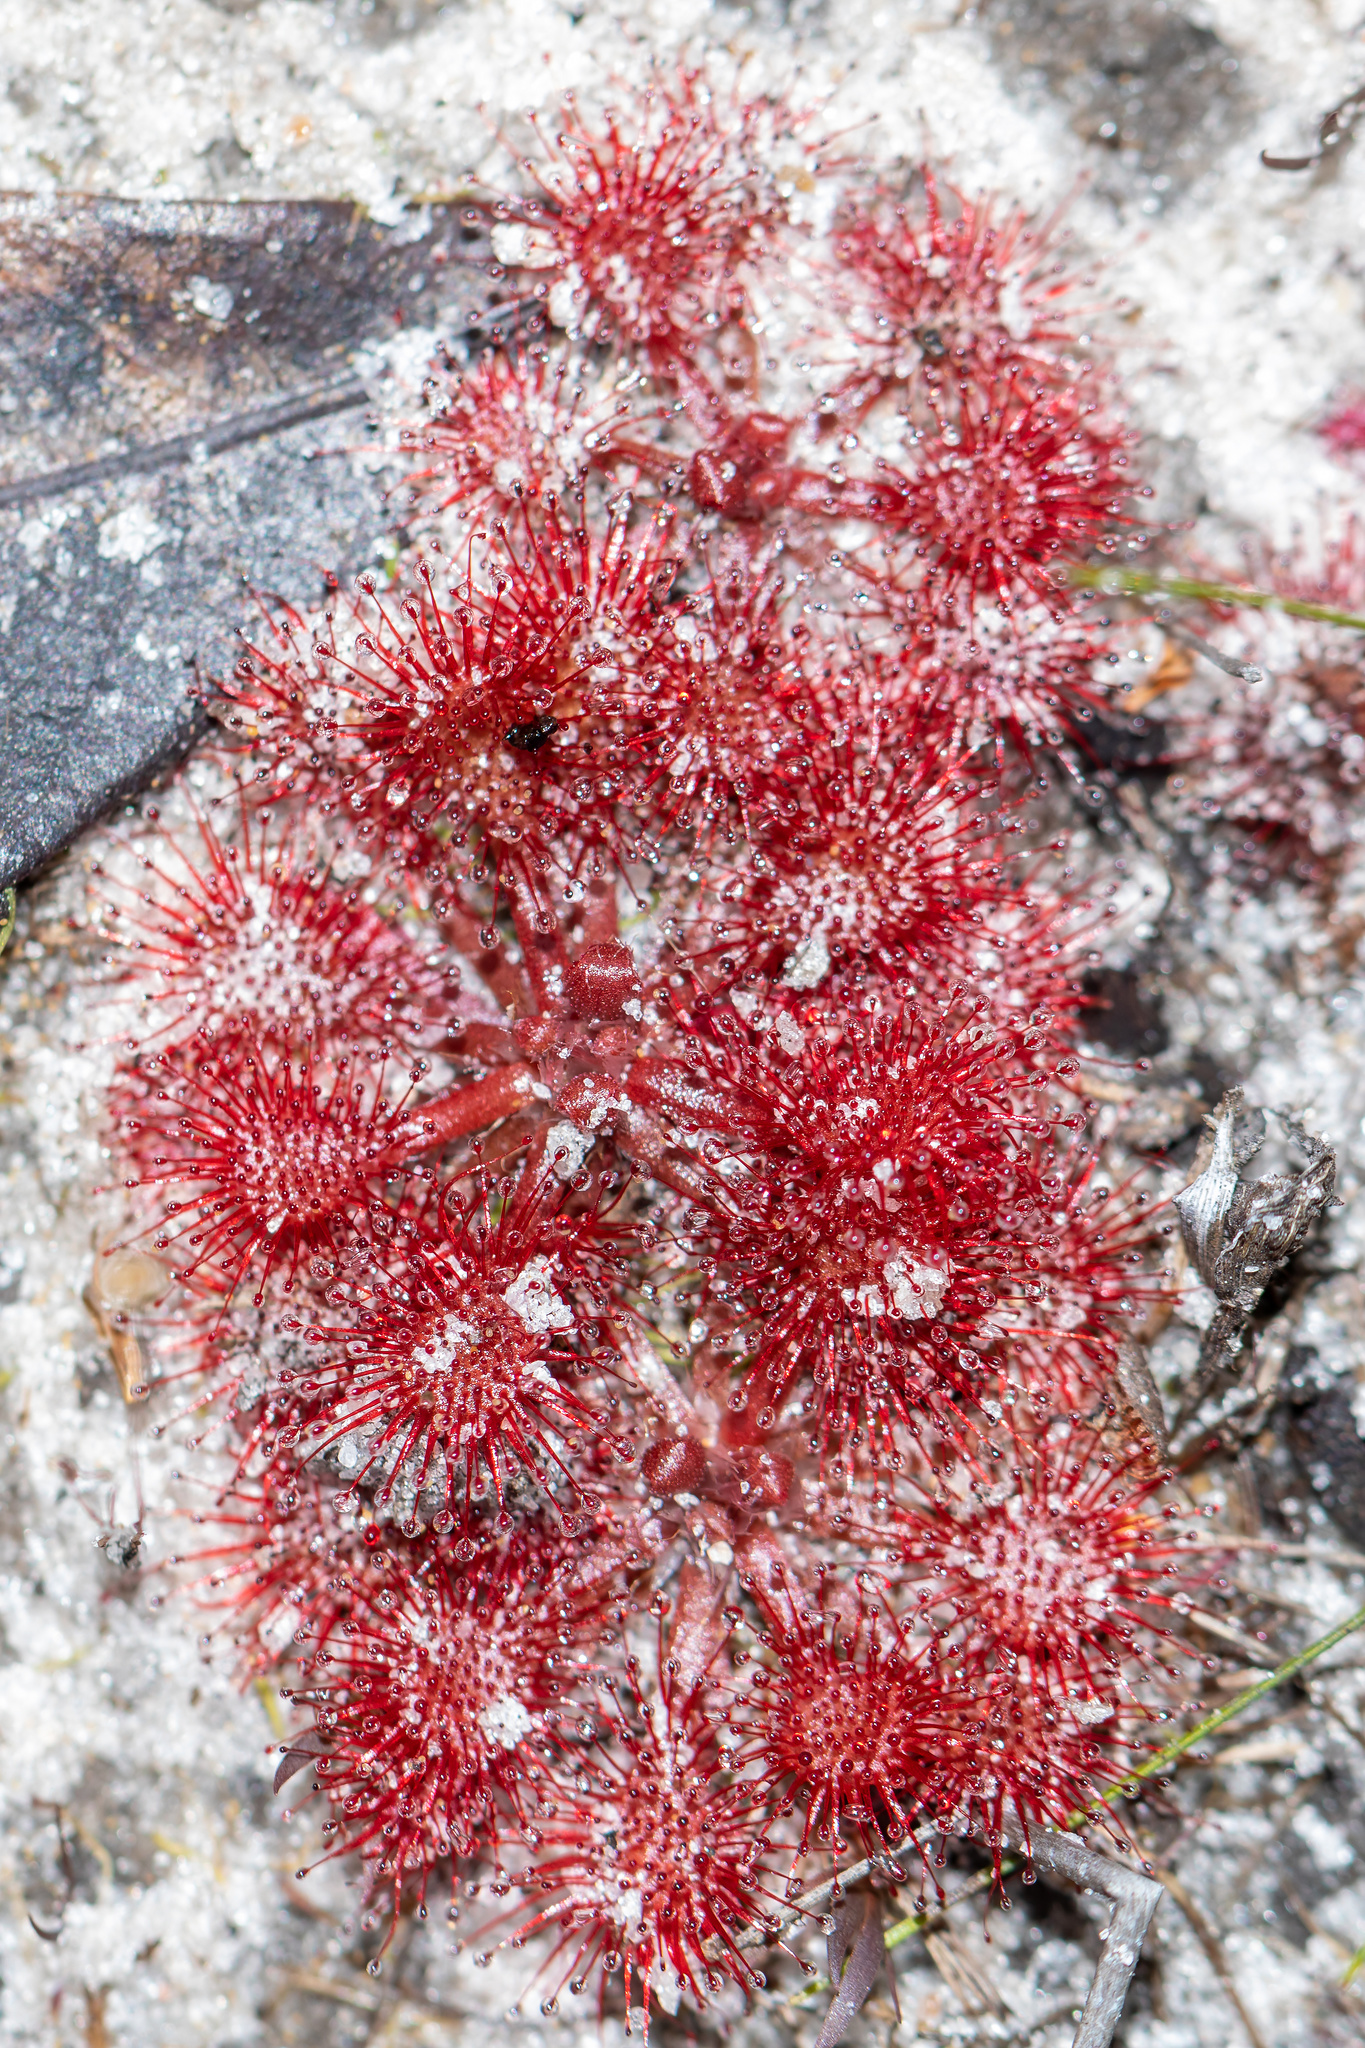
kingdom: Plantae
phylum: Tracheophyta
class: Magnoliopsida
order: Caryophyllales
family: Droseraceae
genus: Drosera
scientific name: Drosera capillaris
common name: Pink sundew
